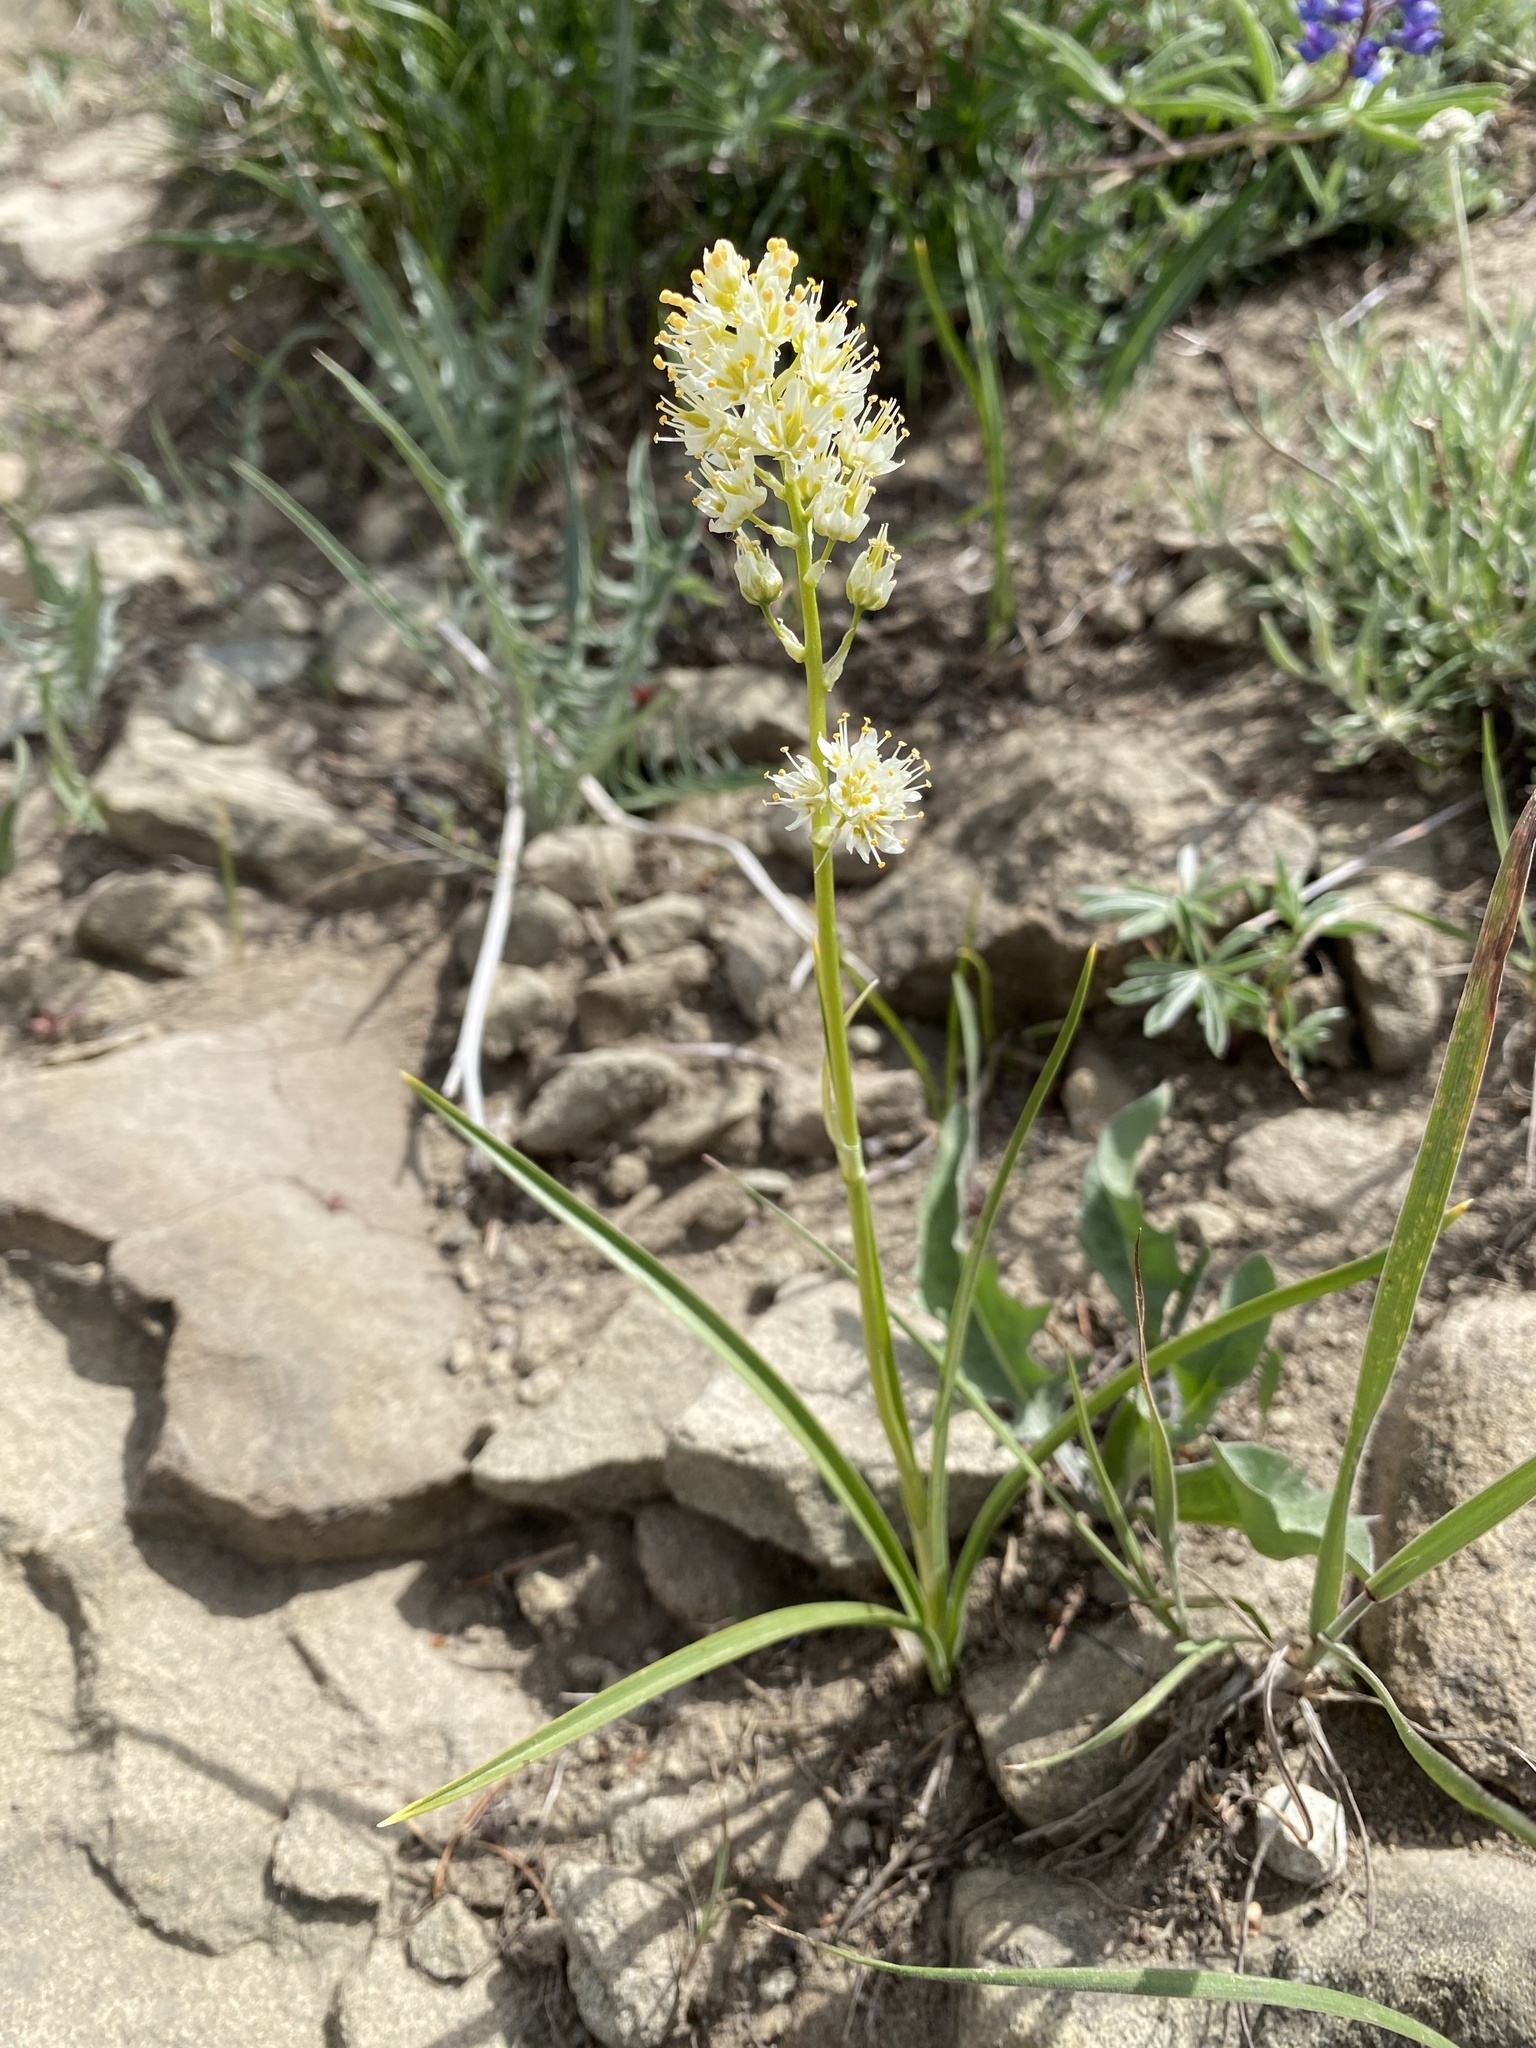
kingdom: Plantae
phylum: Tracheophyta
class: Liliopsida
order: Liliales
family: Melanthiaceae
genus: Toxicoscordion
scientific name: Toxicoscordion paniculatum
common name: Foothill death camas
